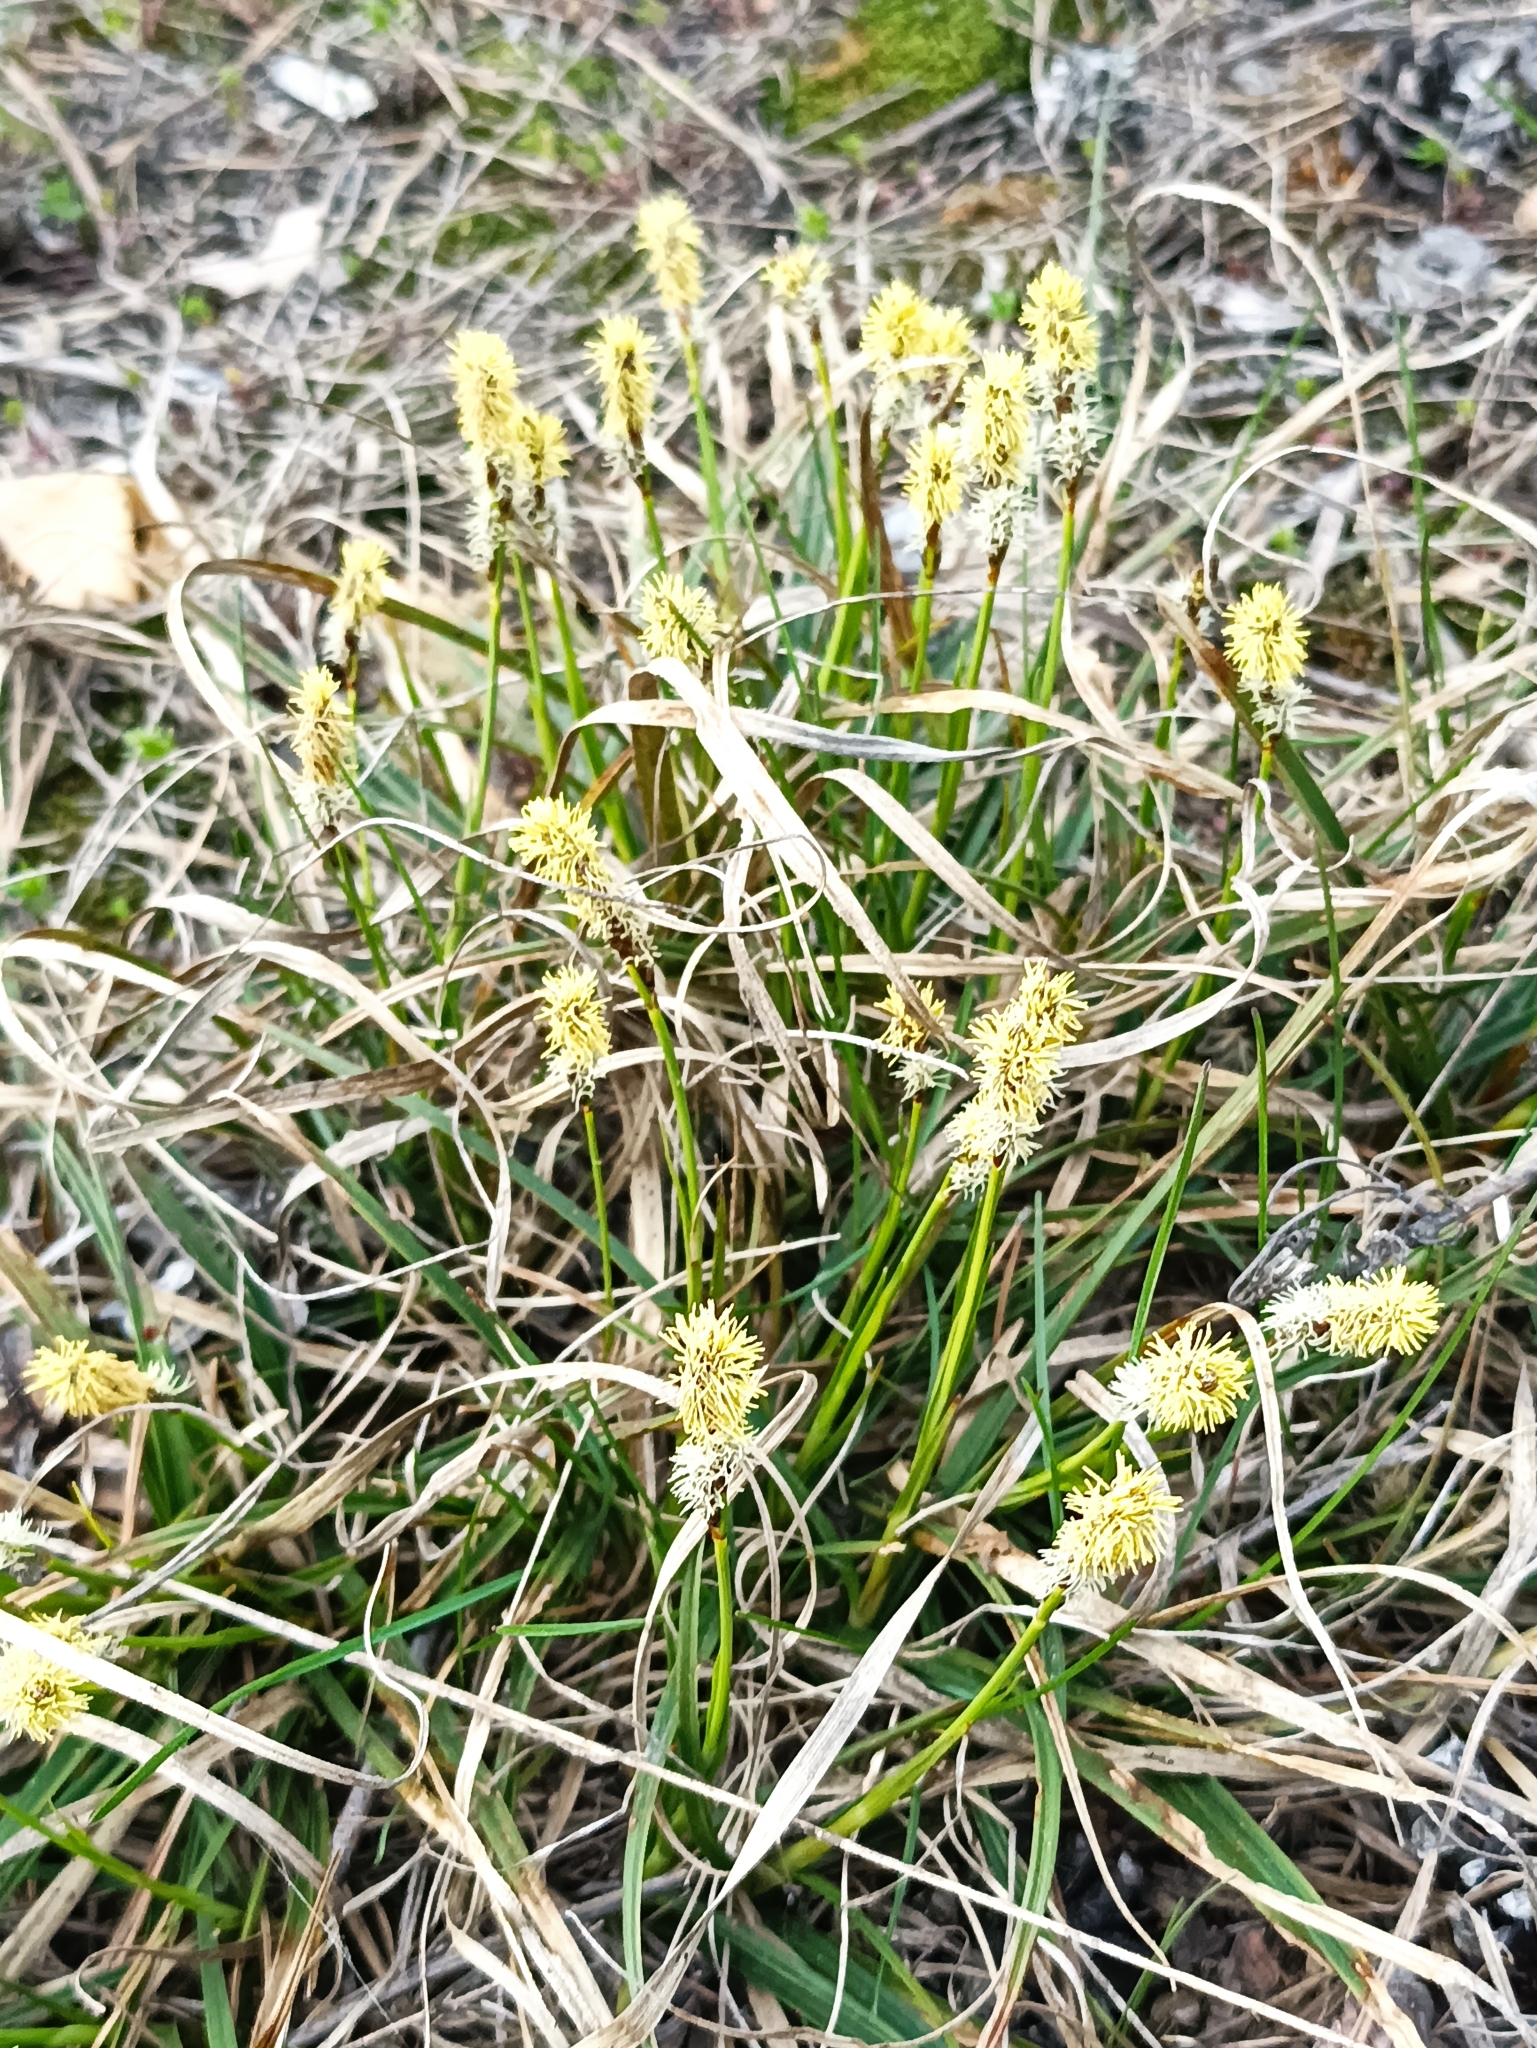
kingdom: Plantae
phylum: Tracheophyta
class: Liliopsida
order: Poales
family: Cyperaceae
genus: Carex
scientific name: Carex ericetorum
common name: Rare spring-sedge
